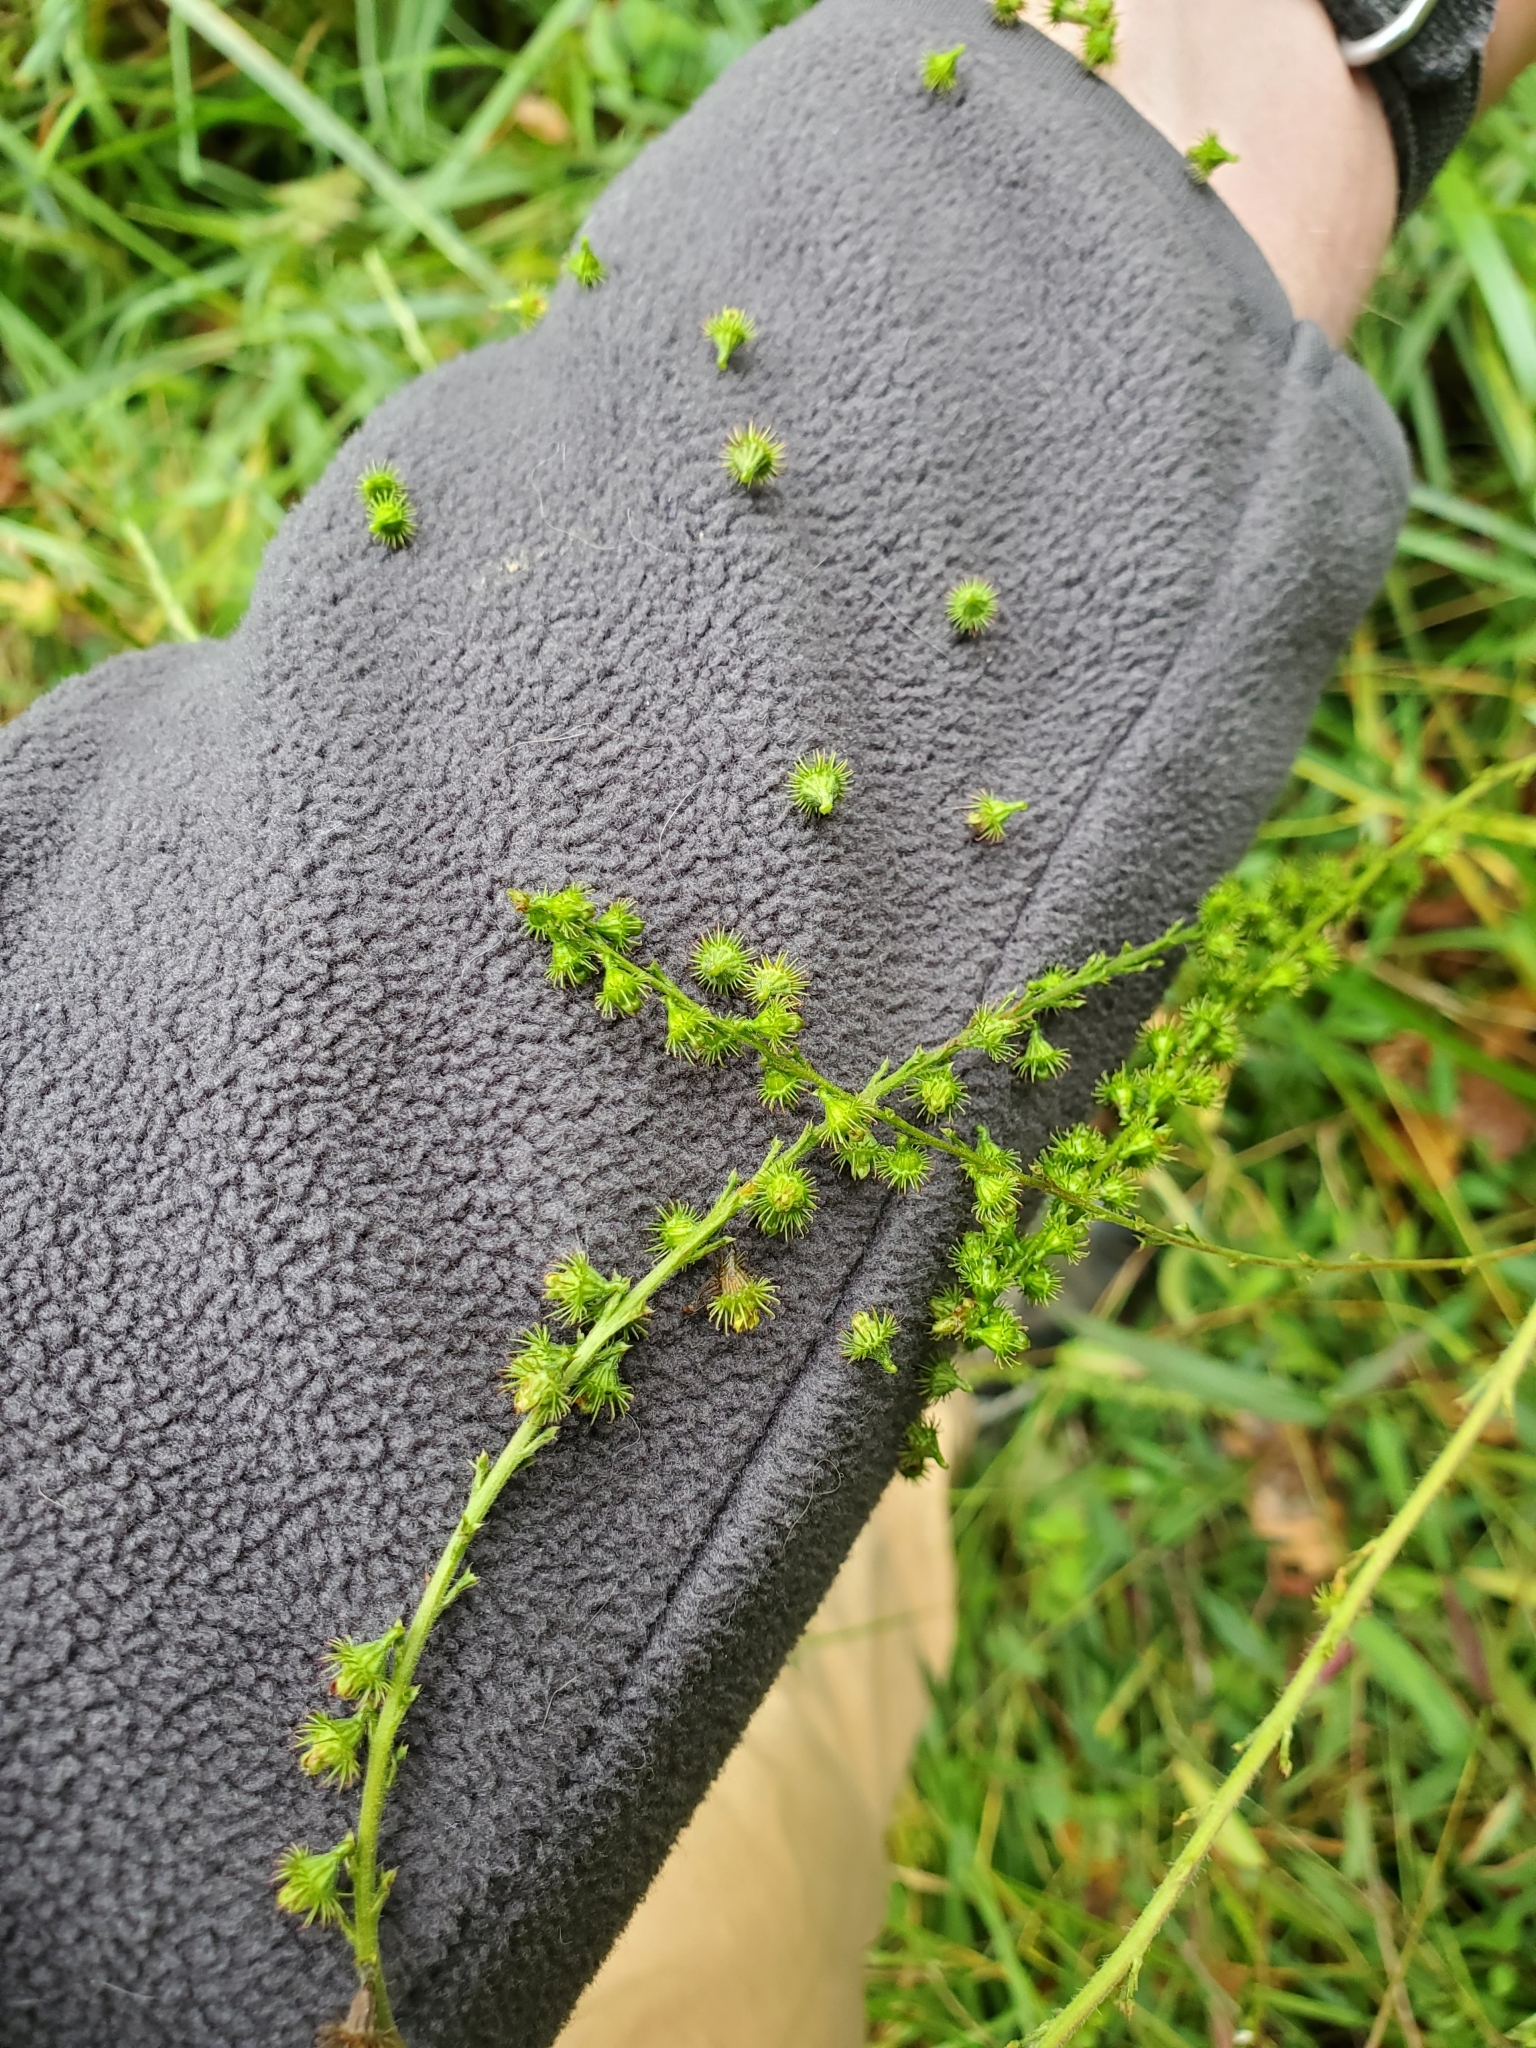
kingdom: Plantae
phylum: Tracheophyta
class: Magnoliopsida
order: Rosales
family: Rosaceae
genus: Agrimonia
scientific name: Agrimonia parviflora
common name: Harvest-lice
